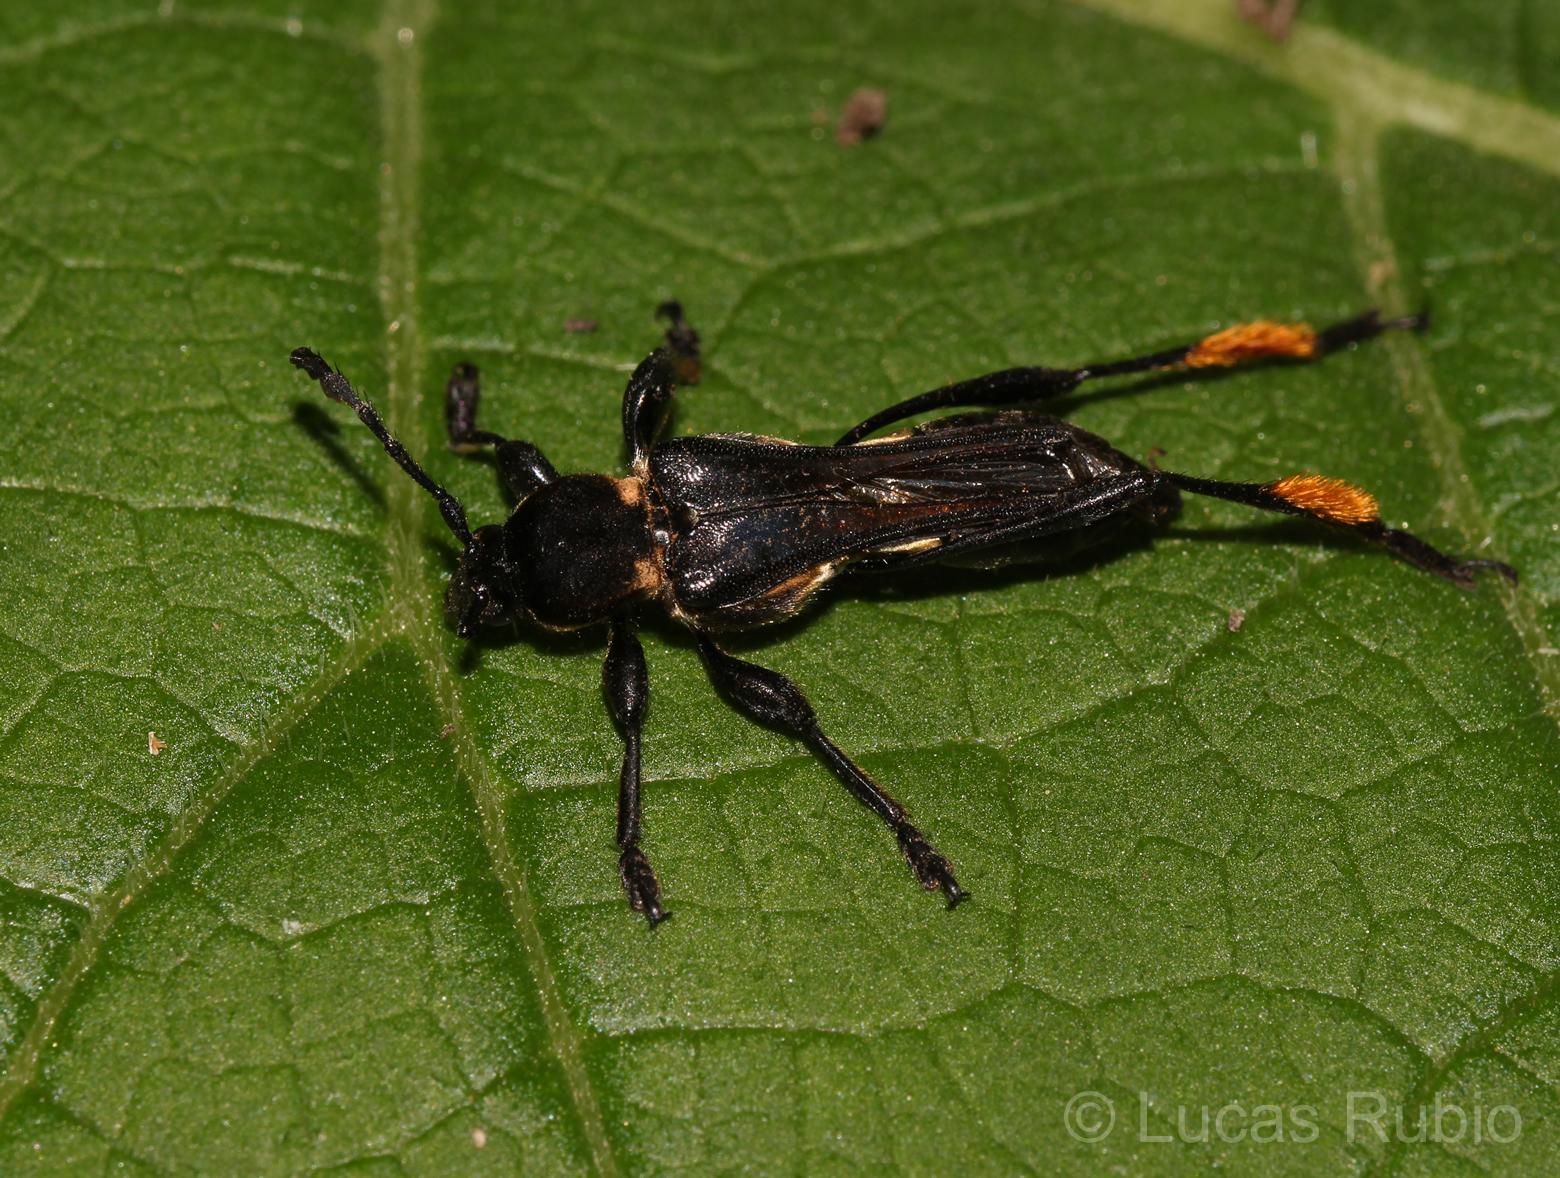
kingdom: Animalia
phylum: Arthropoda
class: Insecta
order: Coleoptera
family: Cerambycidae
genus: Acyphoderes
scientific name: Acyphoderes crinita
